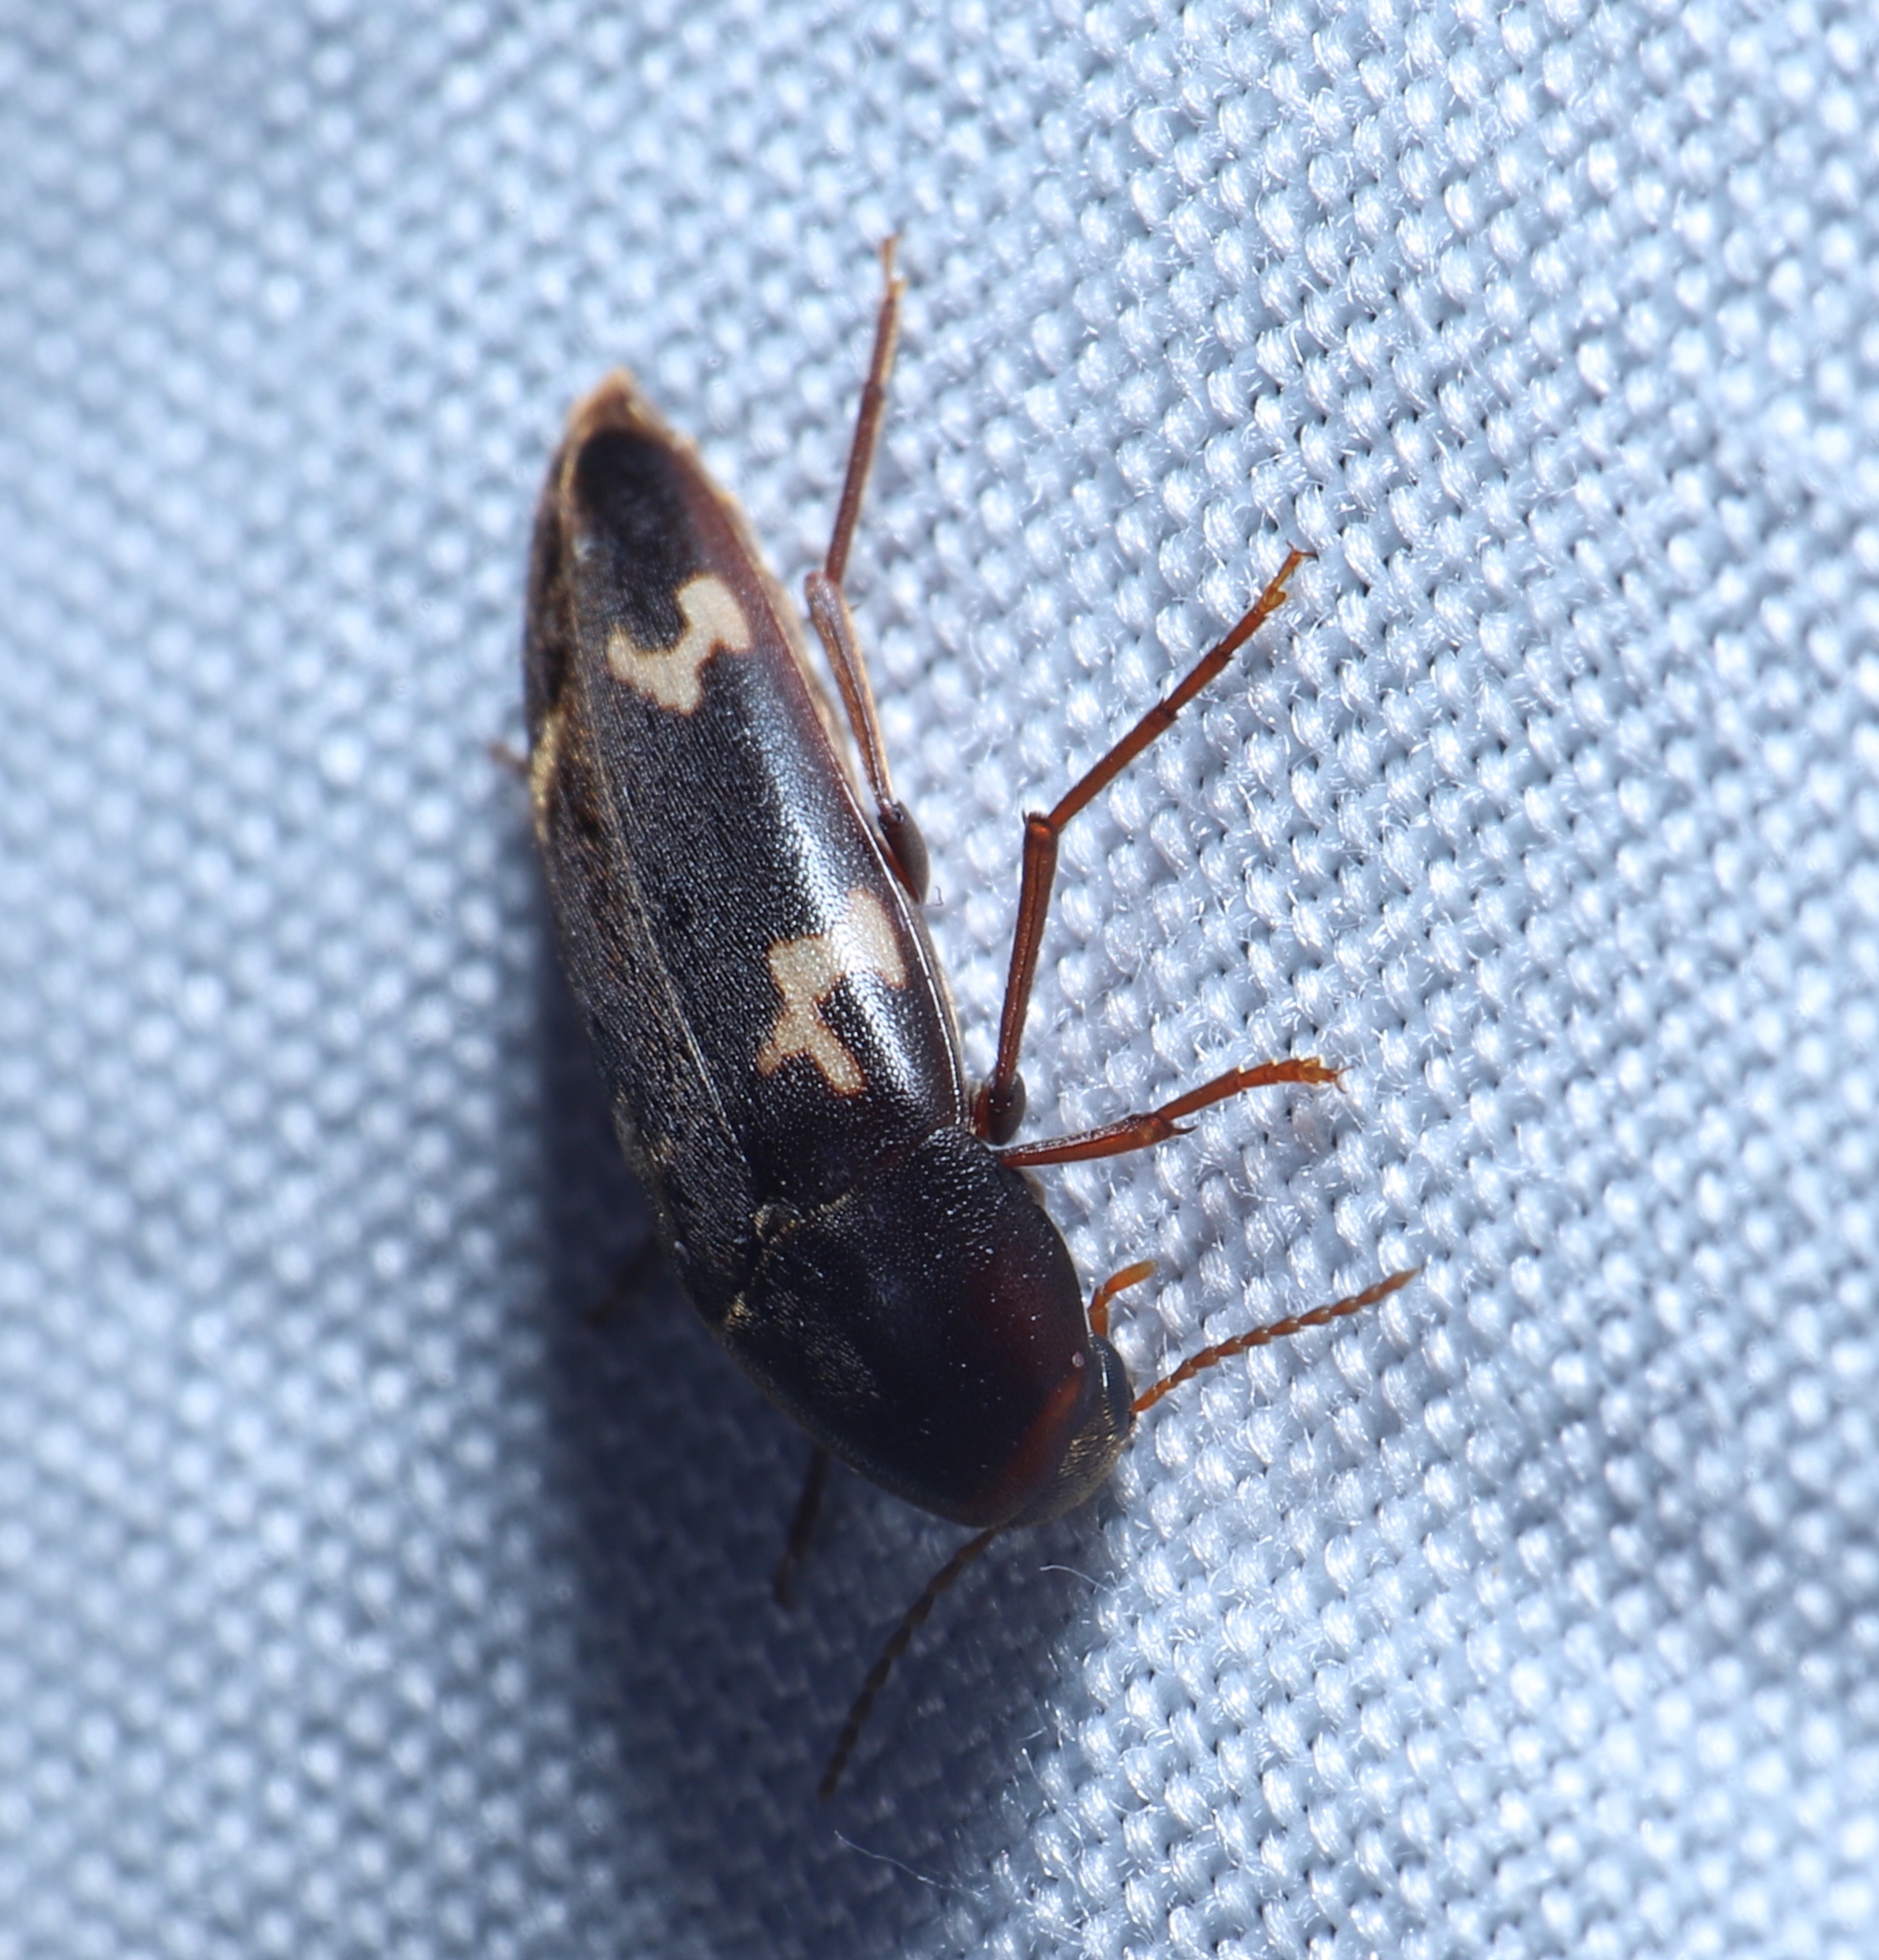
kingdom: Animalia
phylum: Arthropoda
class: Insecta
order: Coleoptera
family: Melandryidae
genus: Dircaea
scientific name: Dircaea liturata
